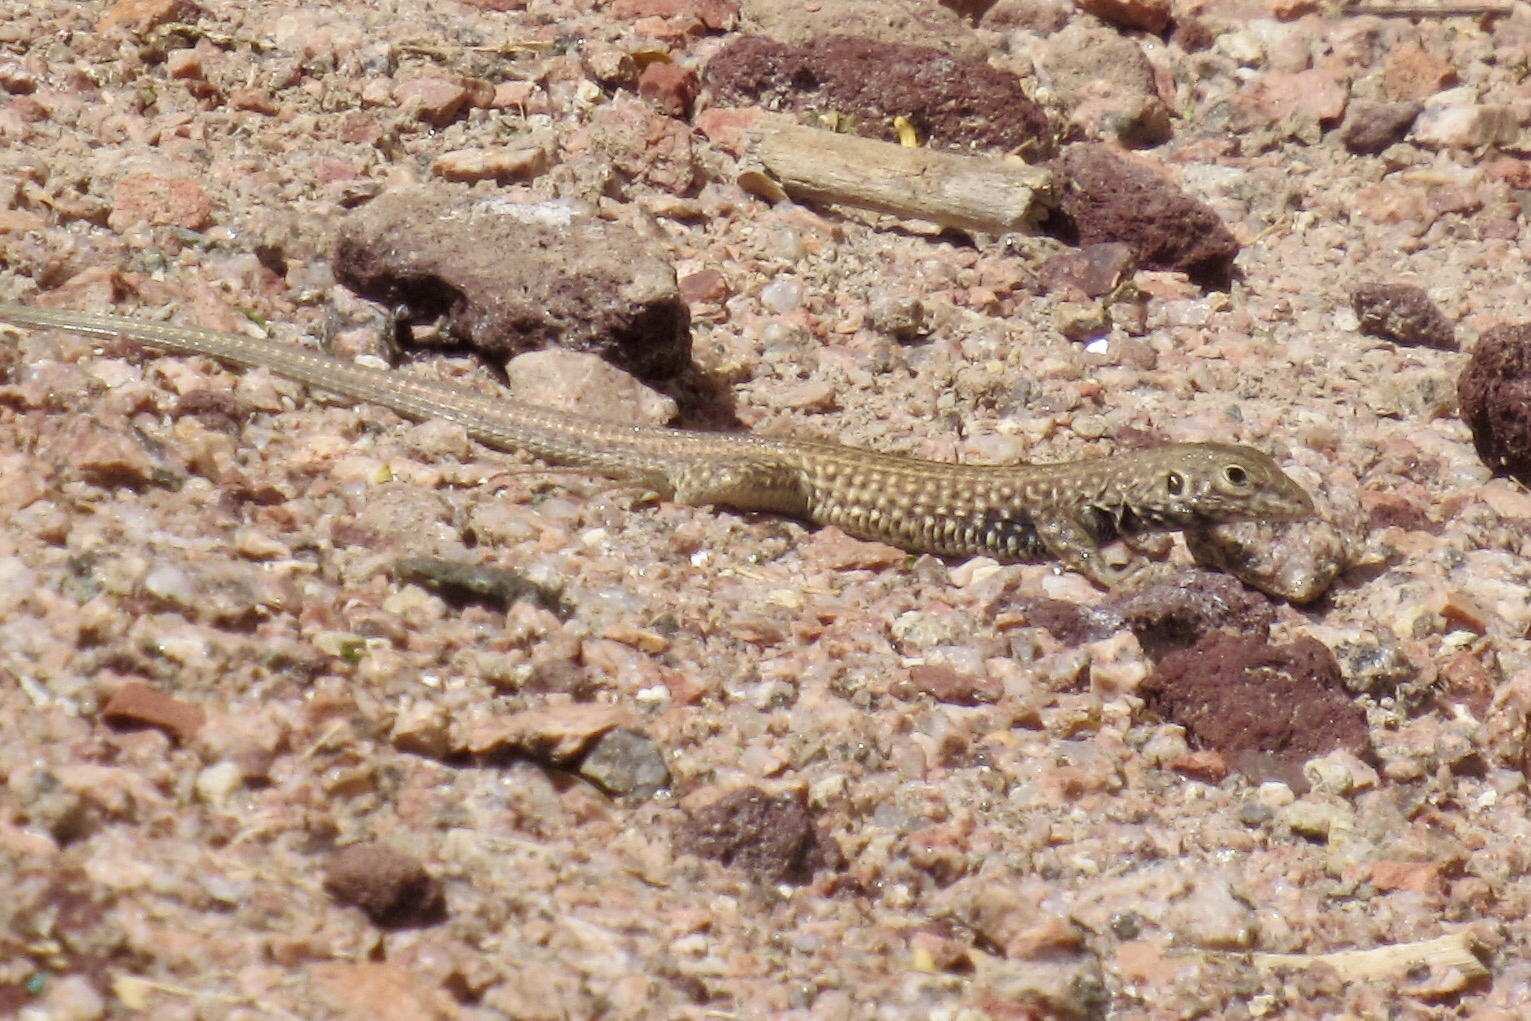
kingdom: Animalia
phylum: Chordata
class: Squamata
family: Teiidae
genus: Aspidoscelis
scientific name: Aspidoscelis tigris
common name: Tiger whiptail
